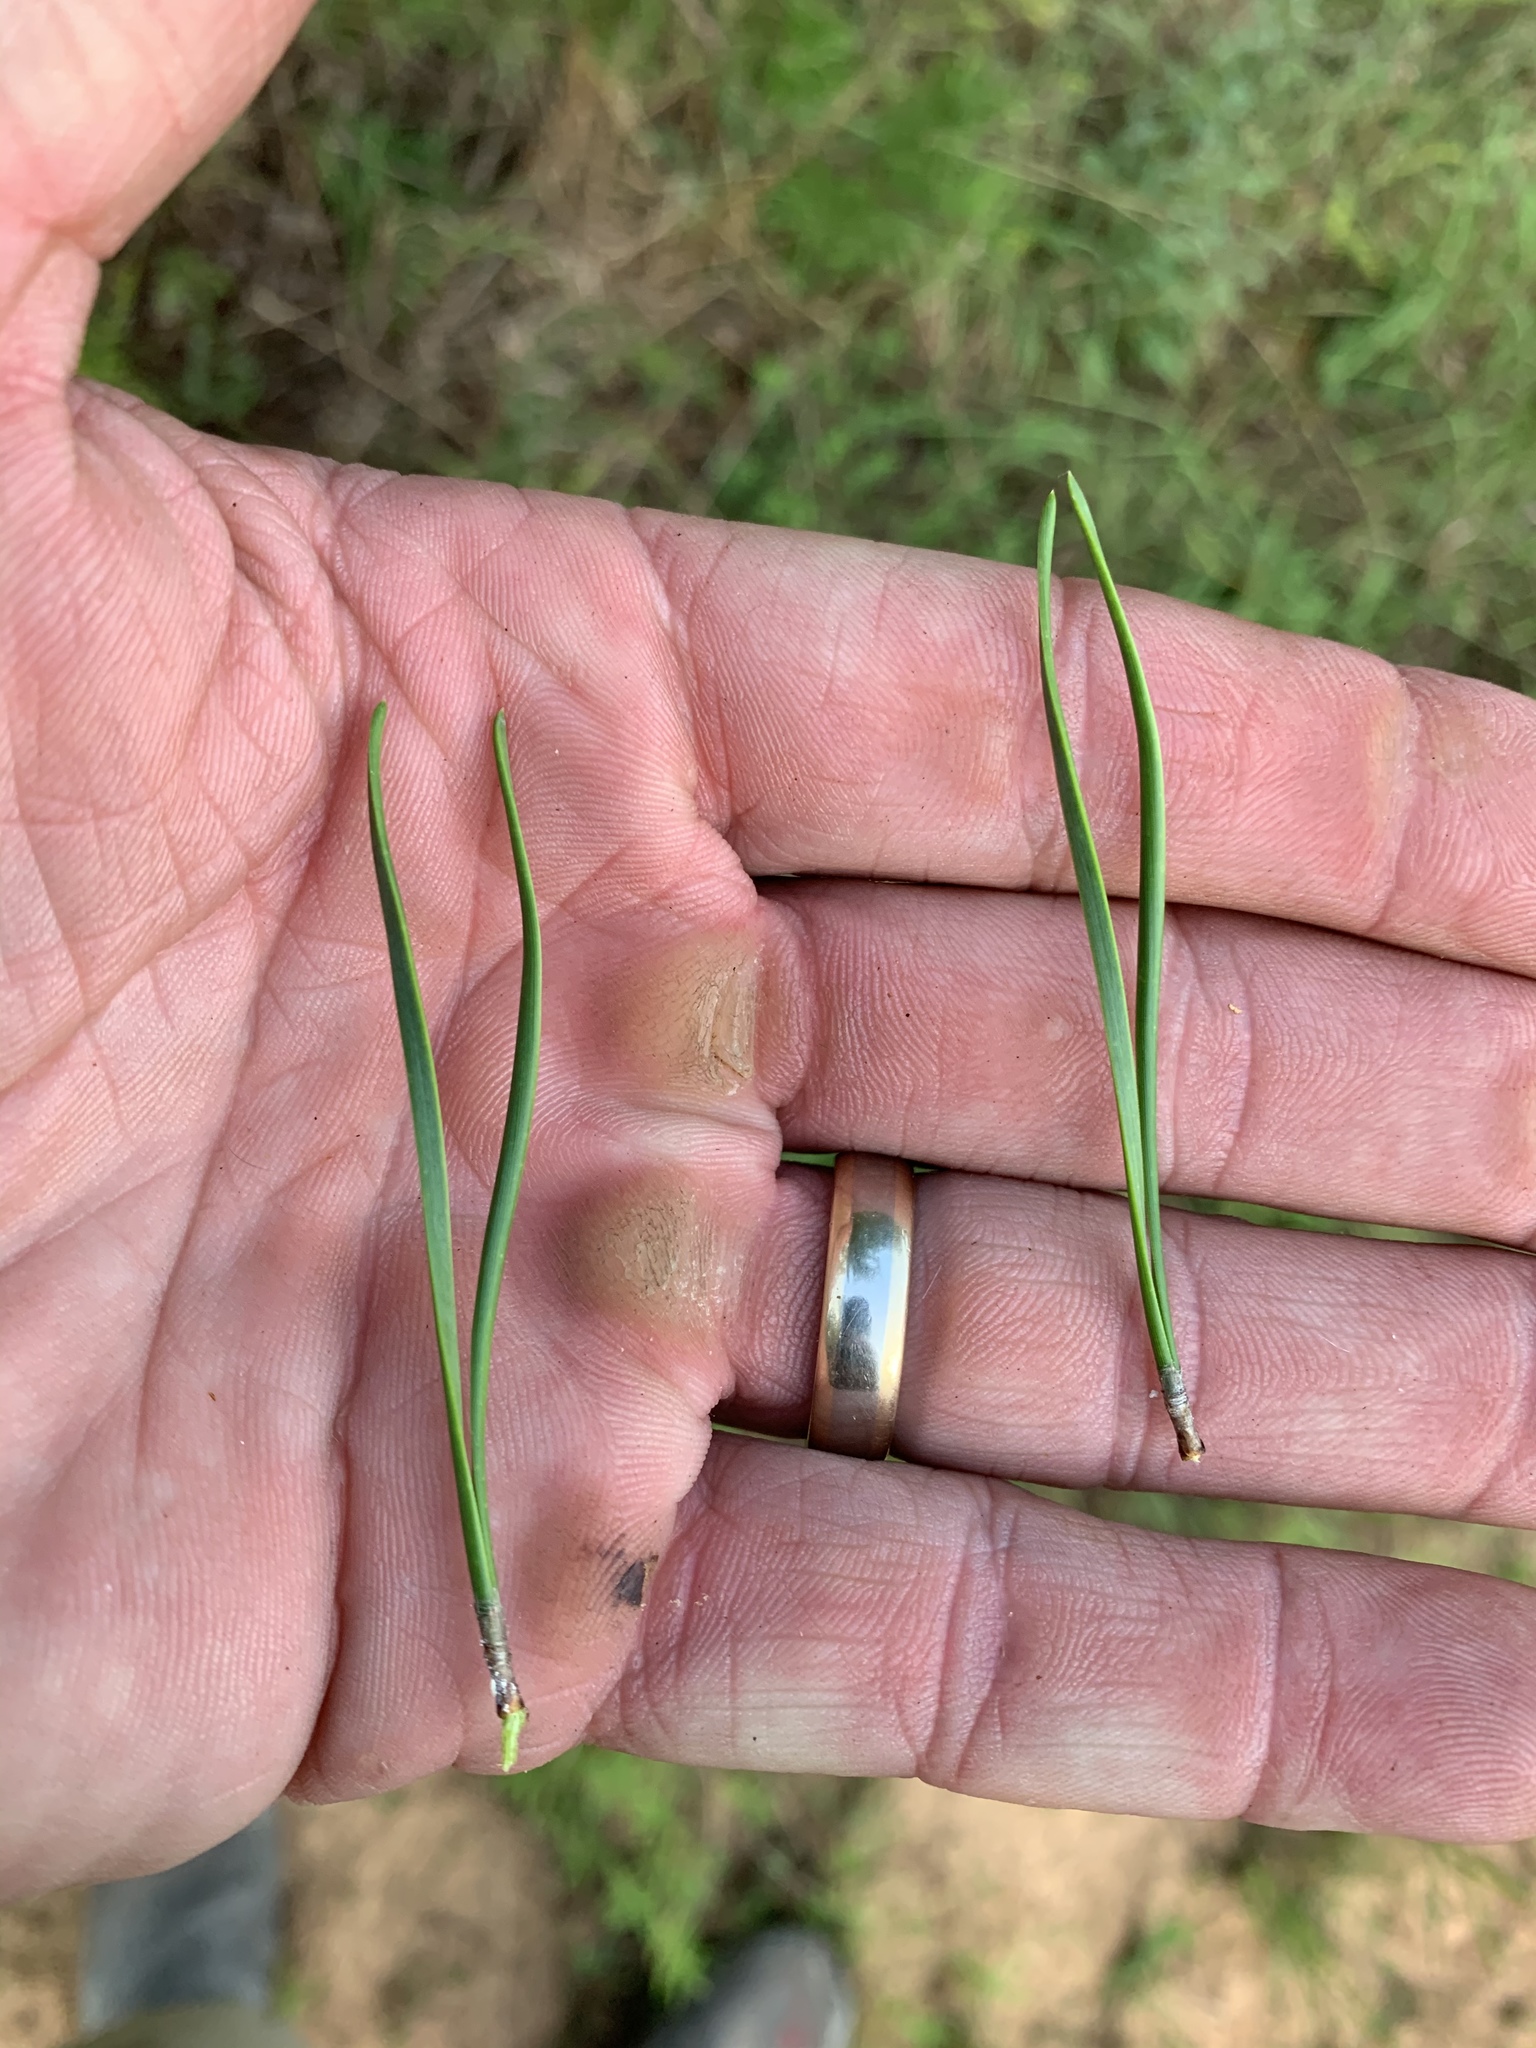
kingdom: Plantae
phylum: Tracheophyta
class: Pinopsida
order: Pinales
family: Pinaceae
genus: Pinus
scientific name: Pinus virginiana
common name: Scrub pine
